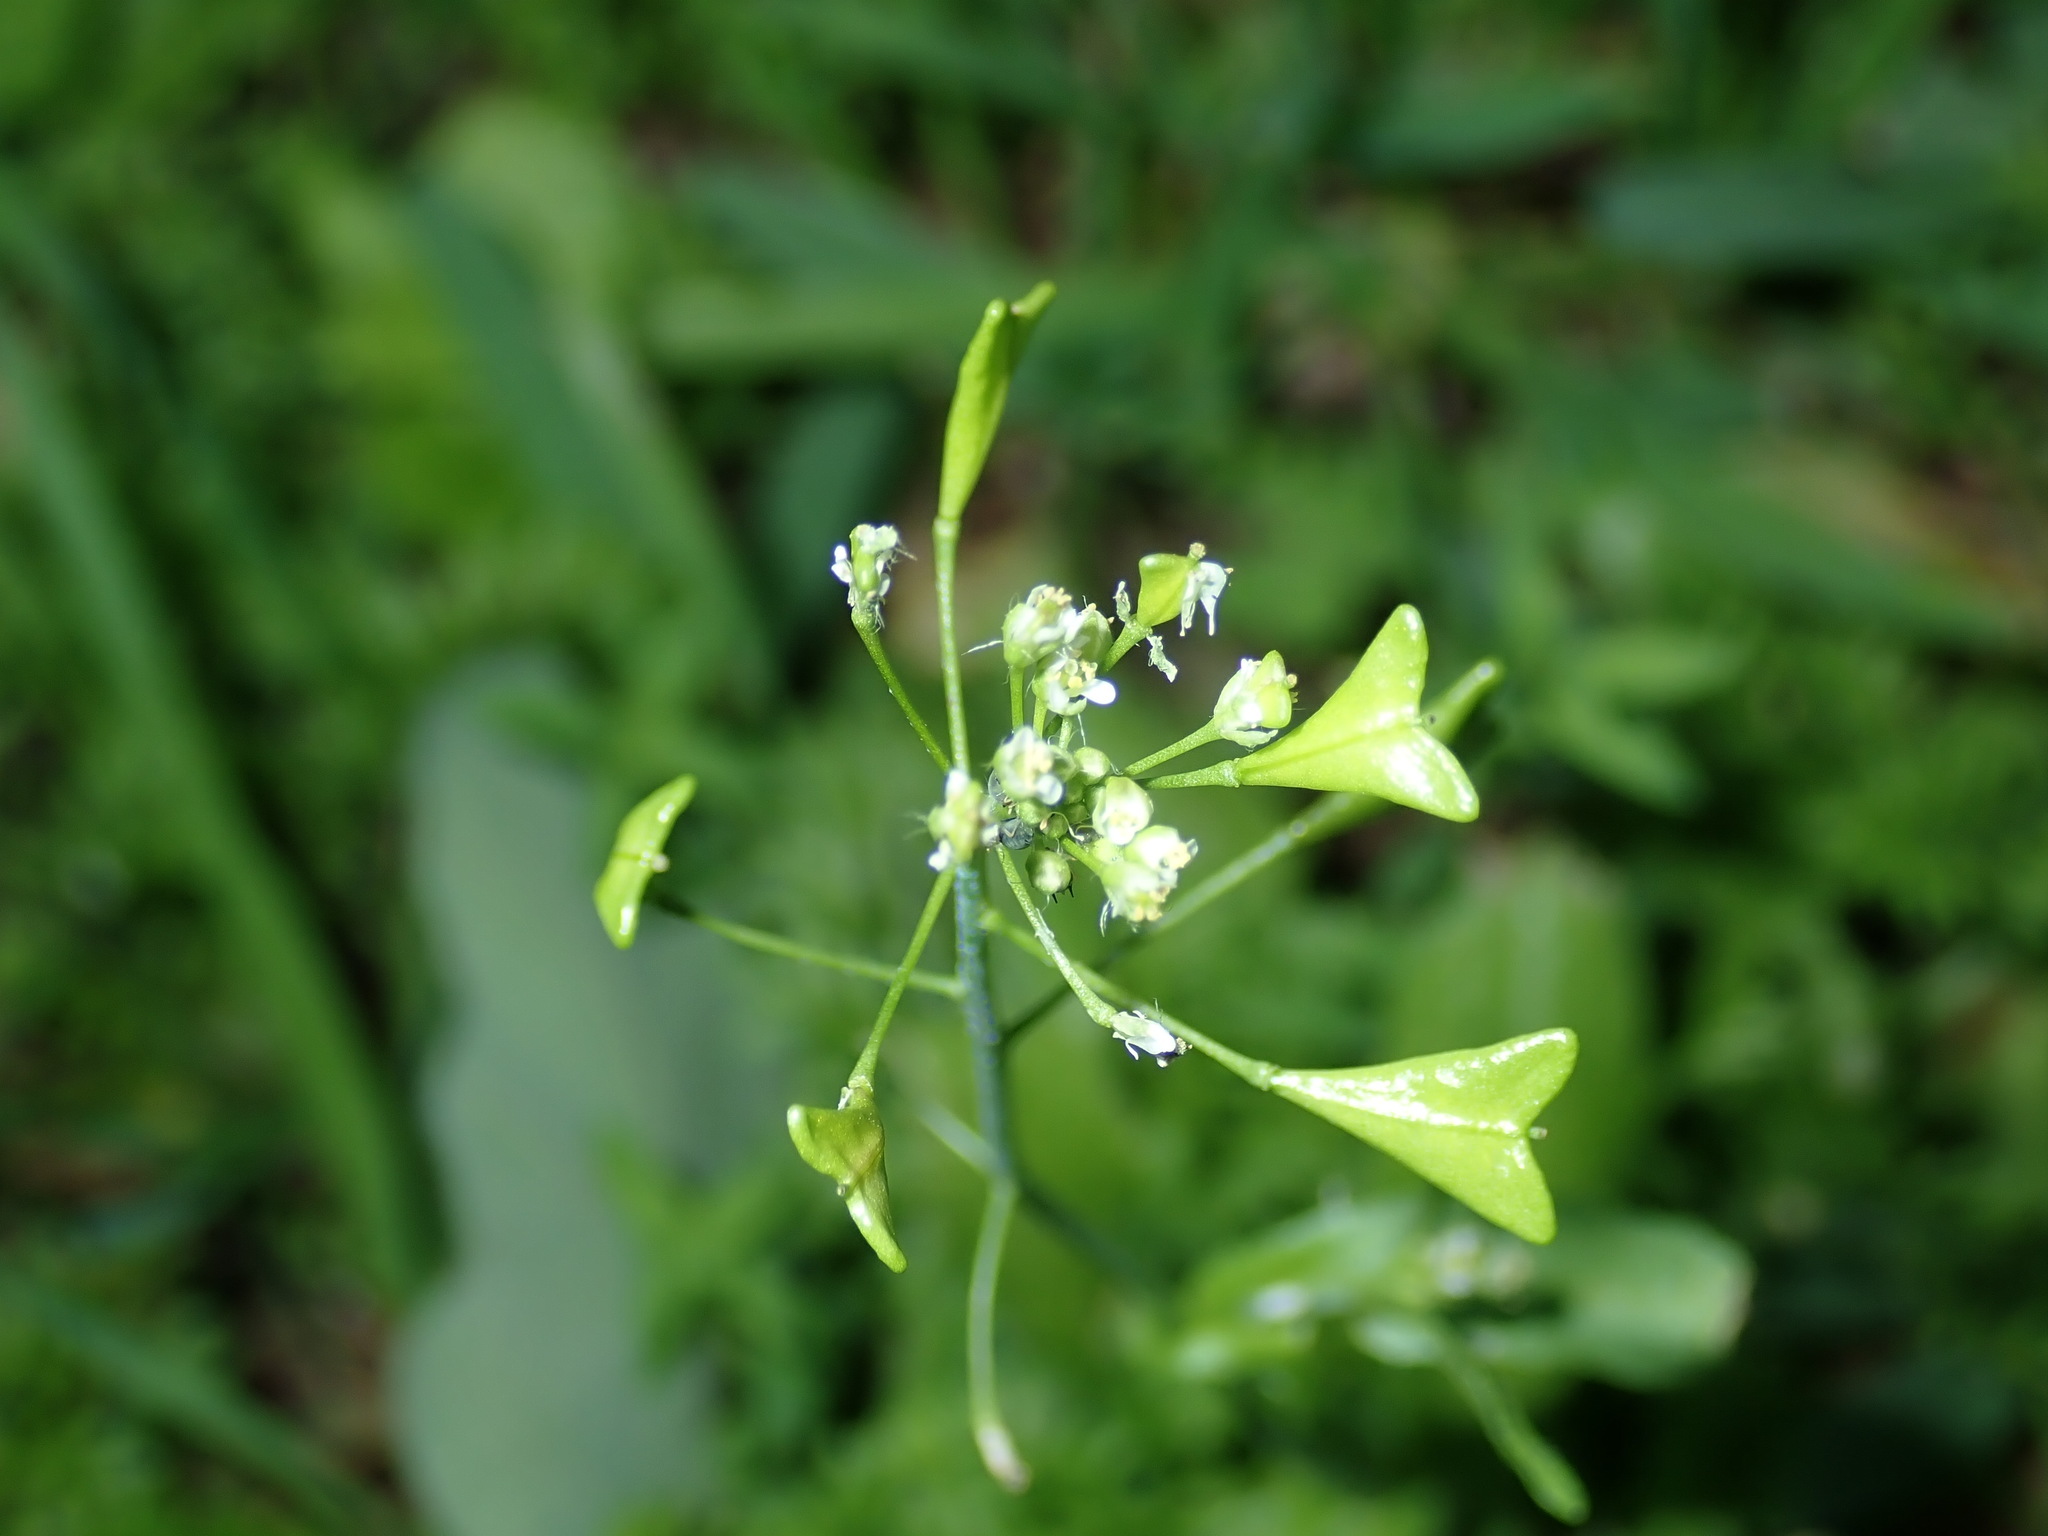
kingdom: Plantae
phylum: Tracheophyta
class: Magnoliopsida
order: Brassicales
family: Brassicaceae
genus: Capsella
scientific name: Capsella bursa-pastoris
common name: Shepherd's purse
